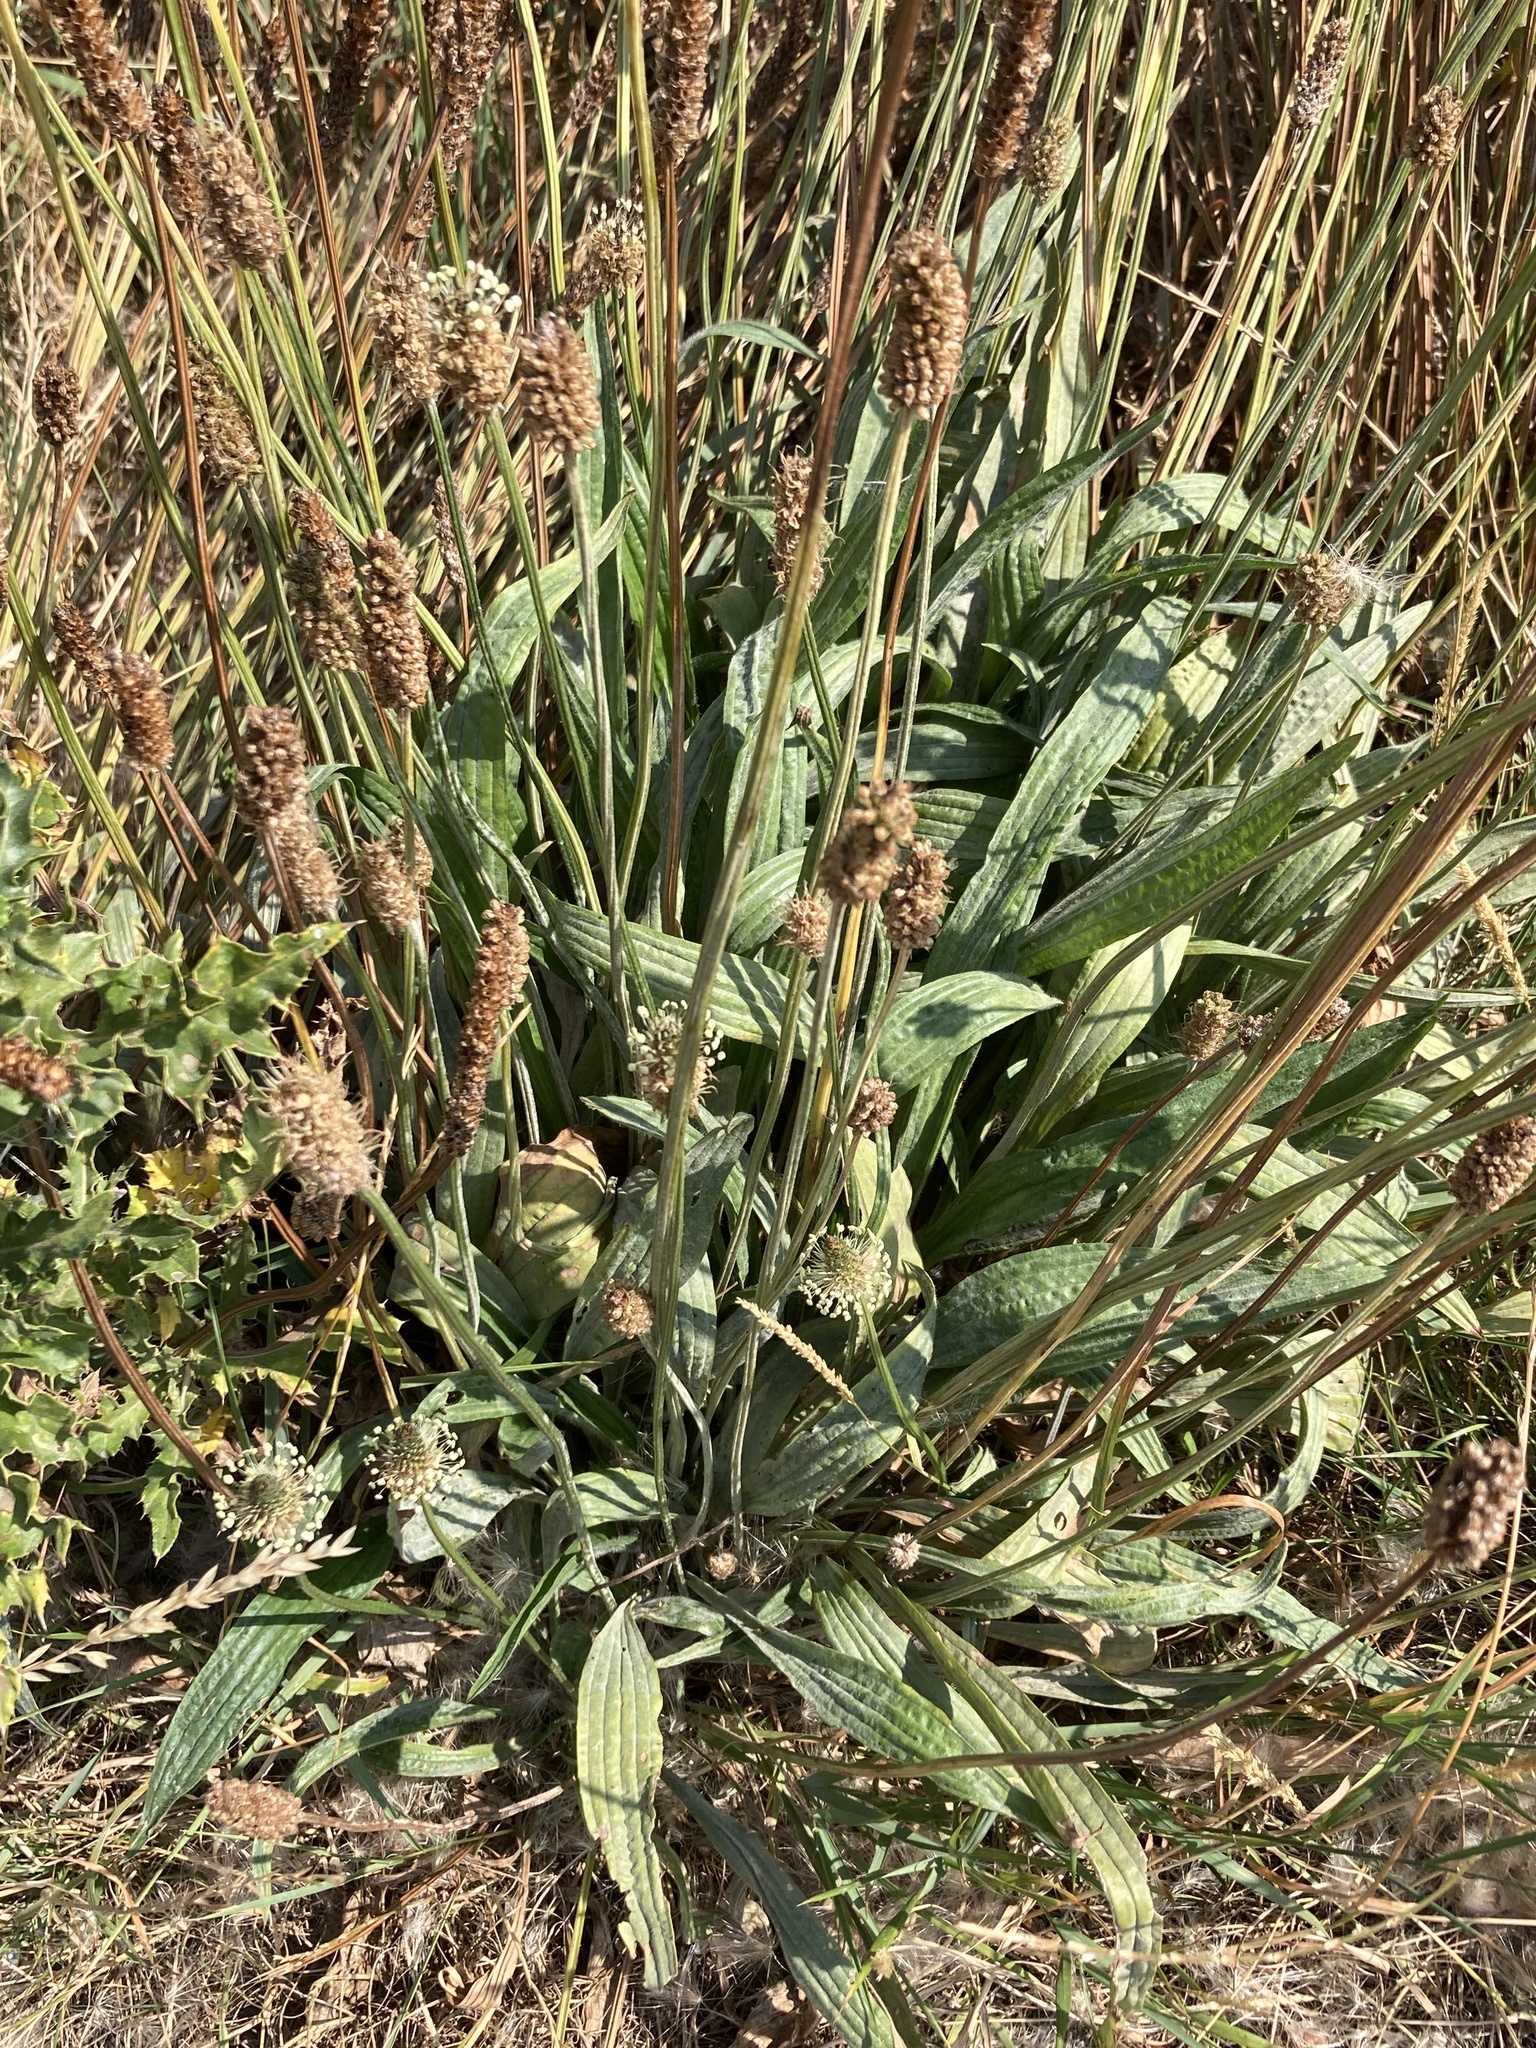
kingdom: Plantae
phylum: Tracheophyta
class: Magnoliopsida
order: Lamiales
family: Plantaginaceae
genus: Plantago
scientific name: Plantago lanceolata
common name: Ribwort plantain
